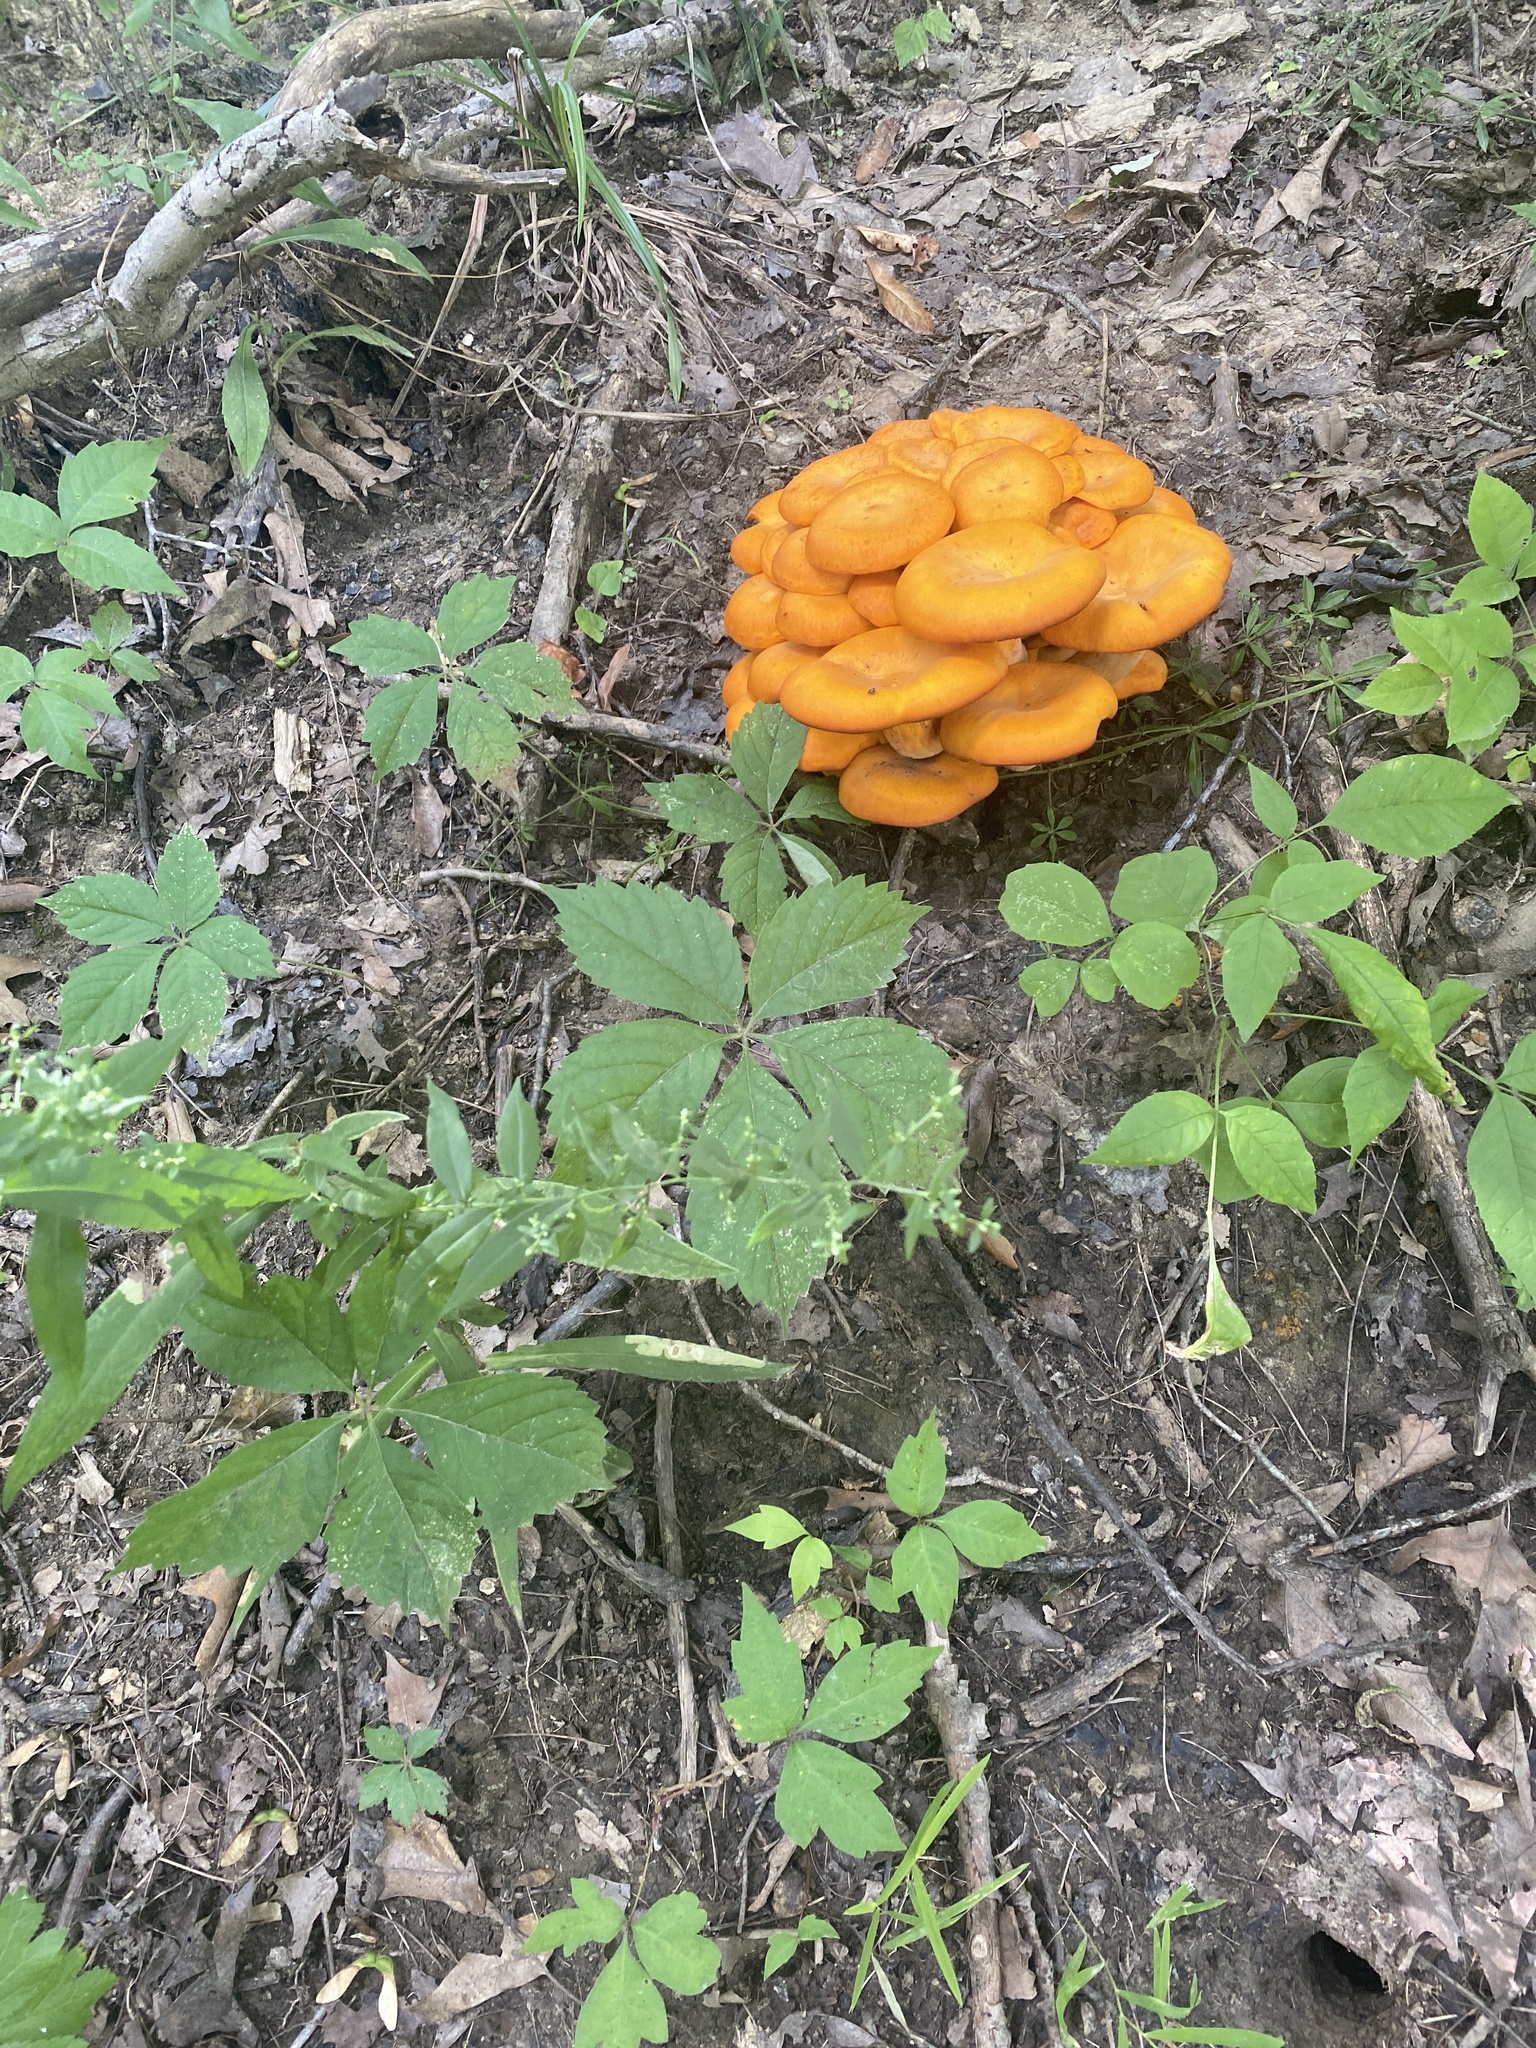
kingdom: Fungi
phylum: Basidiomycota
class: Agaricomycetes
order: Agaricales
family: Omphalotaceae
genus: Omphalotus
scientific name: Omphalotus illudens
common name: Jack o lantern
